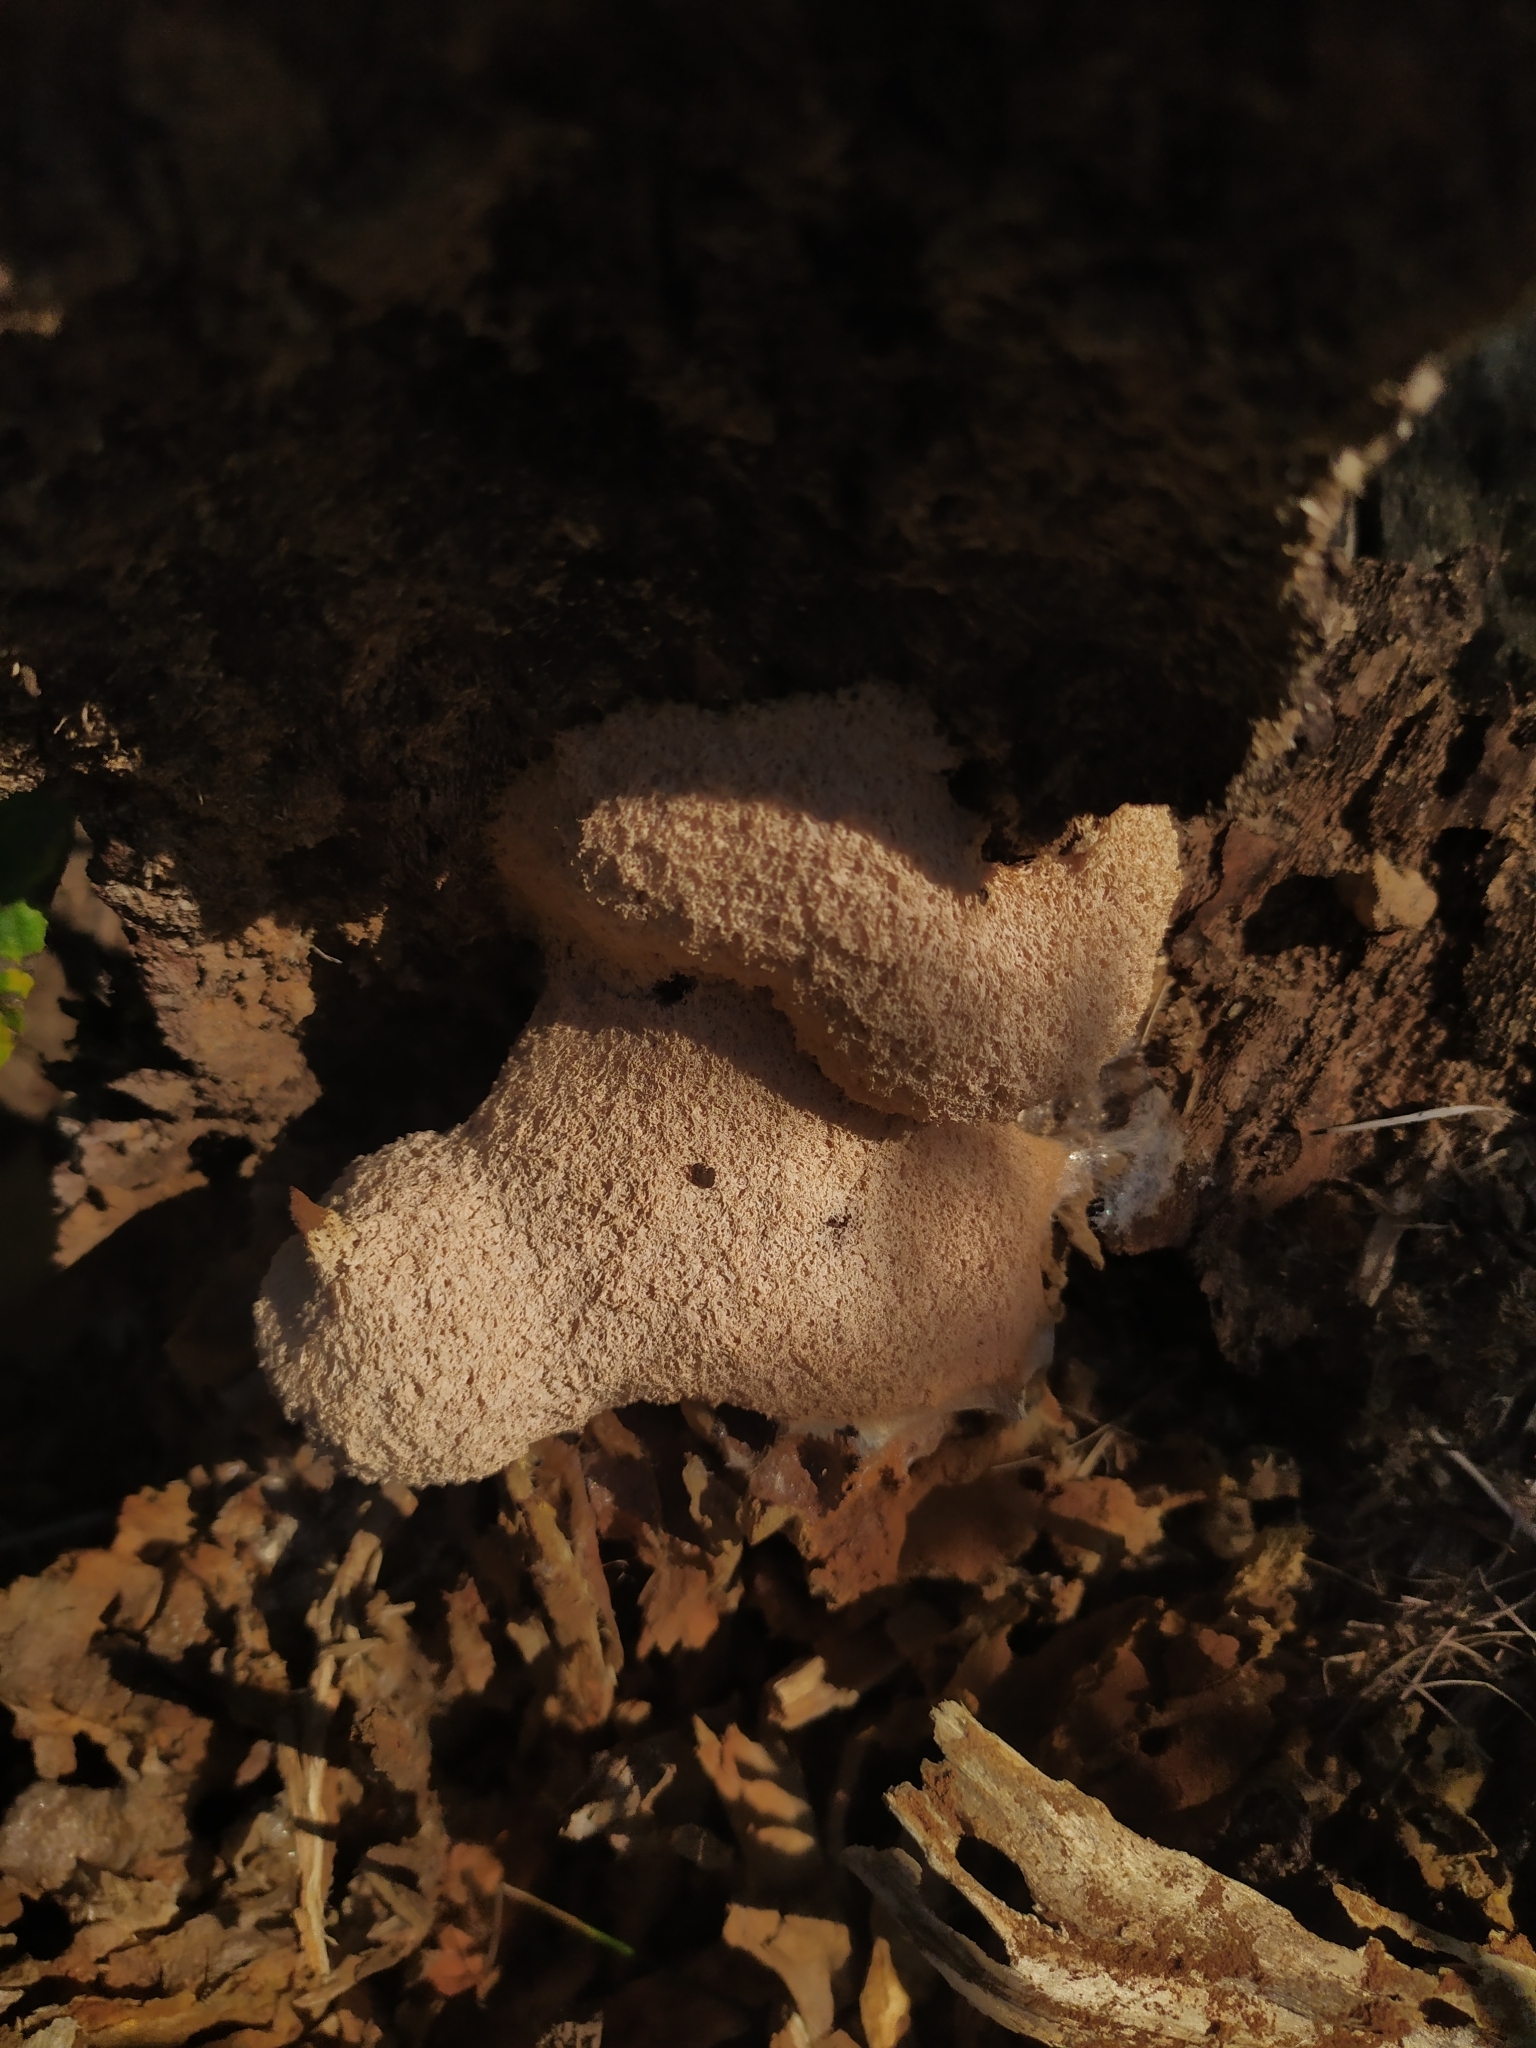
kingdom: Protozoa
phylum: Mycetozoa
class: Myxomycetes
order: Physarales
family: Physaraceae
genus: Fuligo
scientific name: Fuligo septica
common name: Dog vomit slime mold
